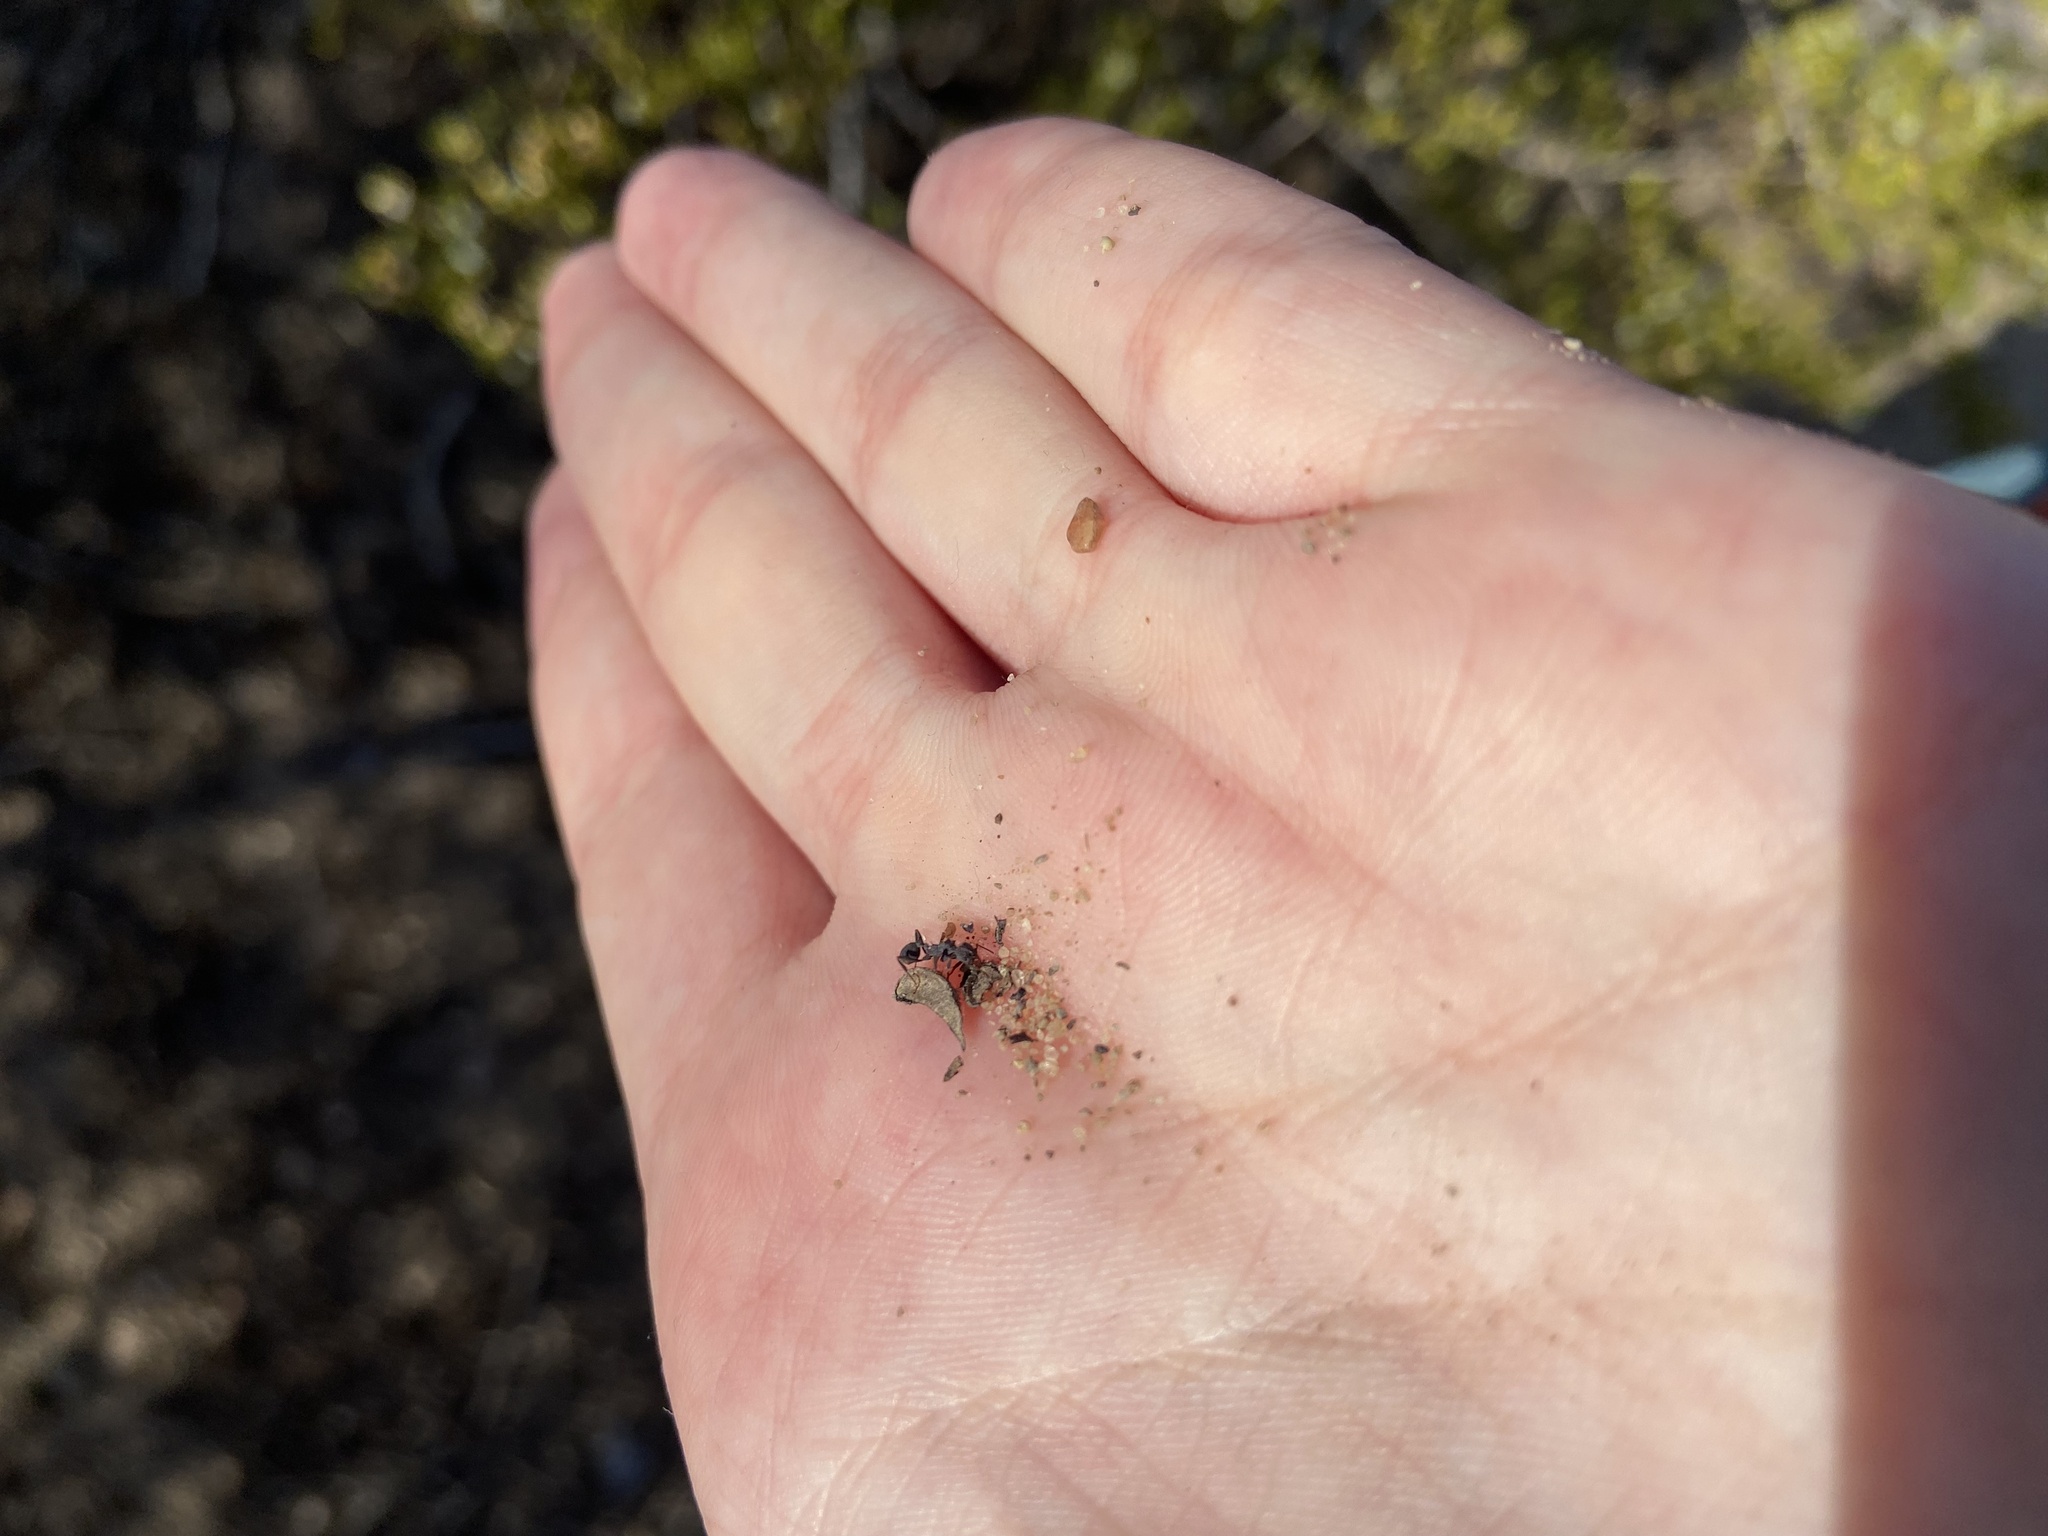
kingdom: Animalia
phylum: Arthropoda
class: Insecta
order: Hymenoptera
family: Formicidae
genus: Trachymyrmex
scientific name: Trachymyrmex smithi
